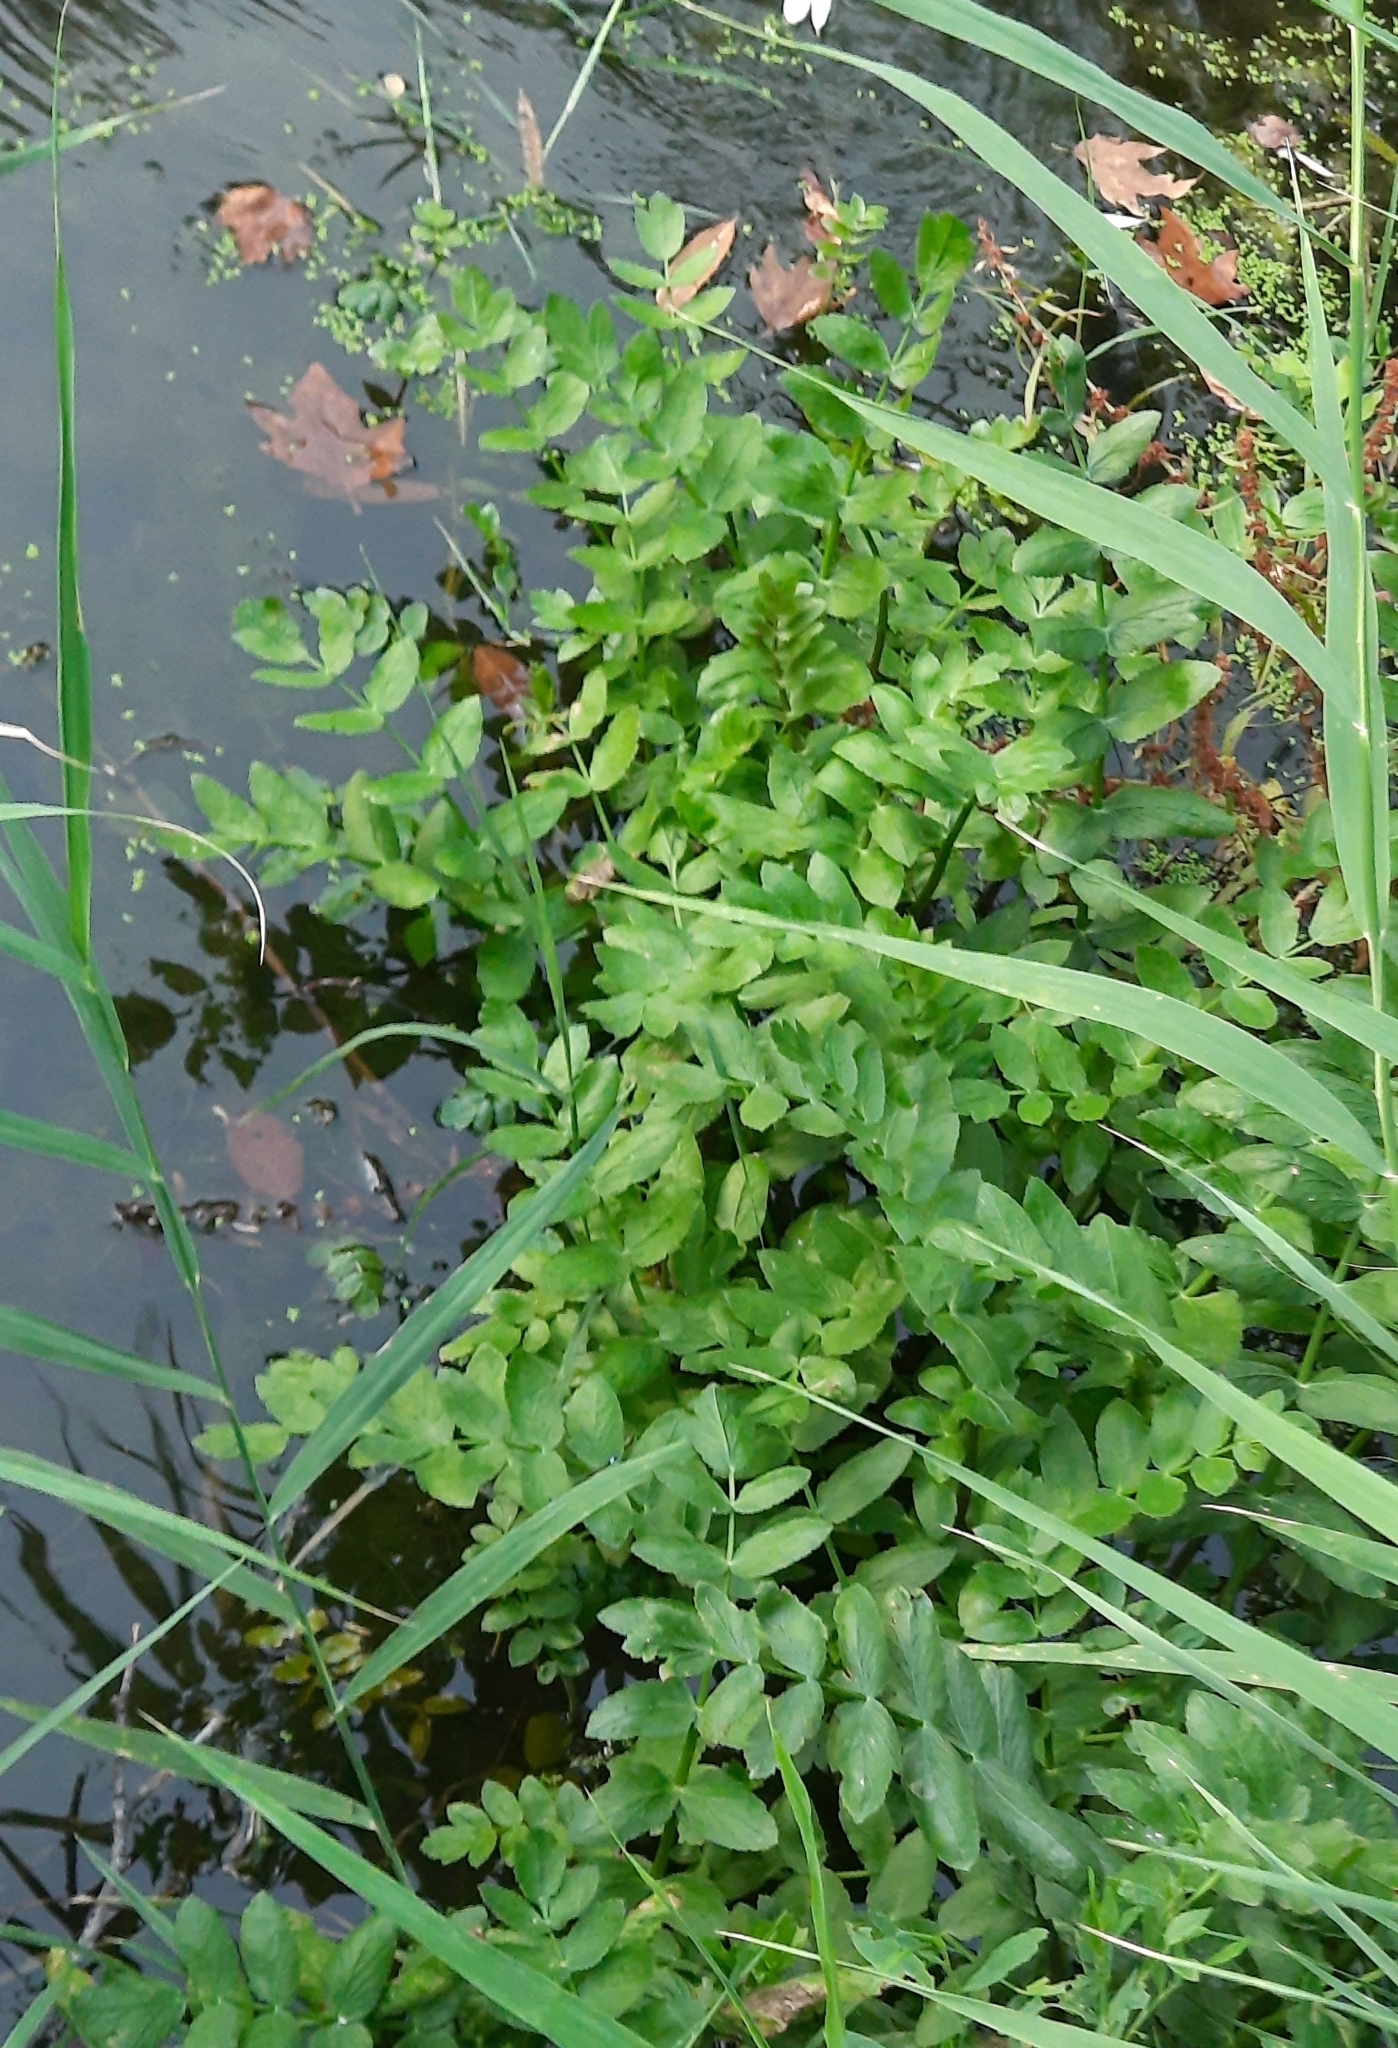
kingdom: Plantae
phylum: Tracheophyta
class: Magnoliopsida
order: Apiales
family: Apiaceae
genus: Berula
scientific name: Berula erecta
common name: Lesser water-parsnip
